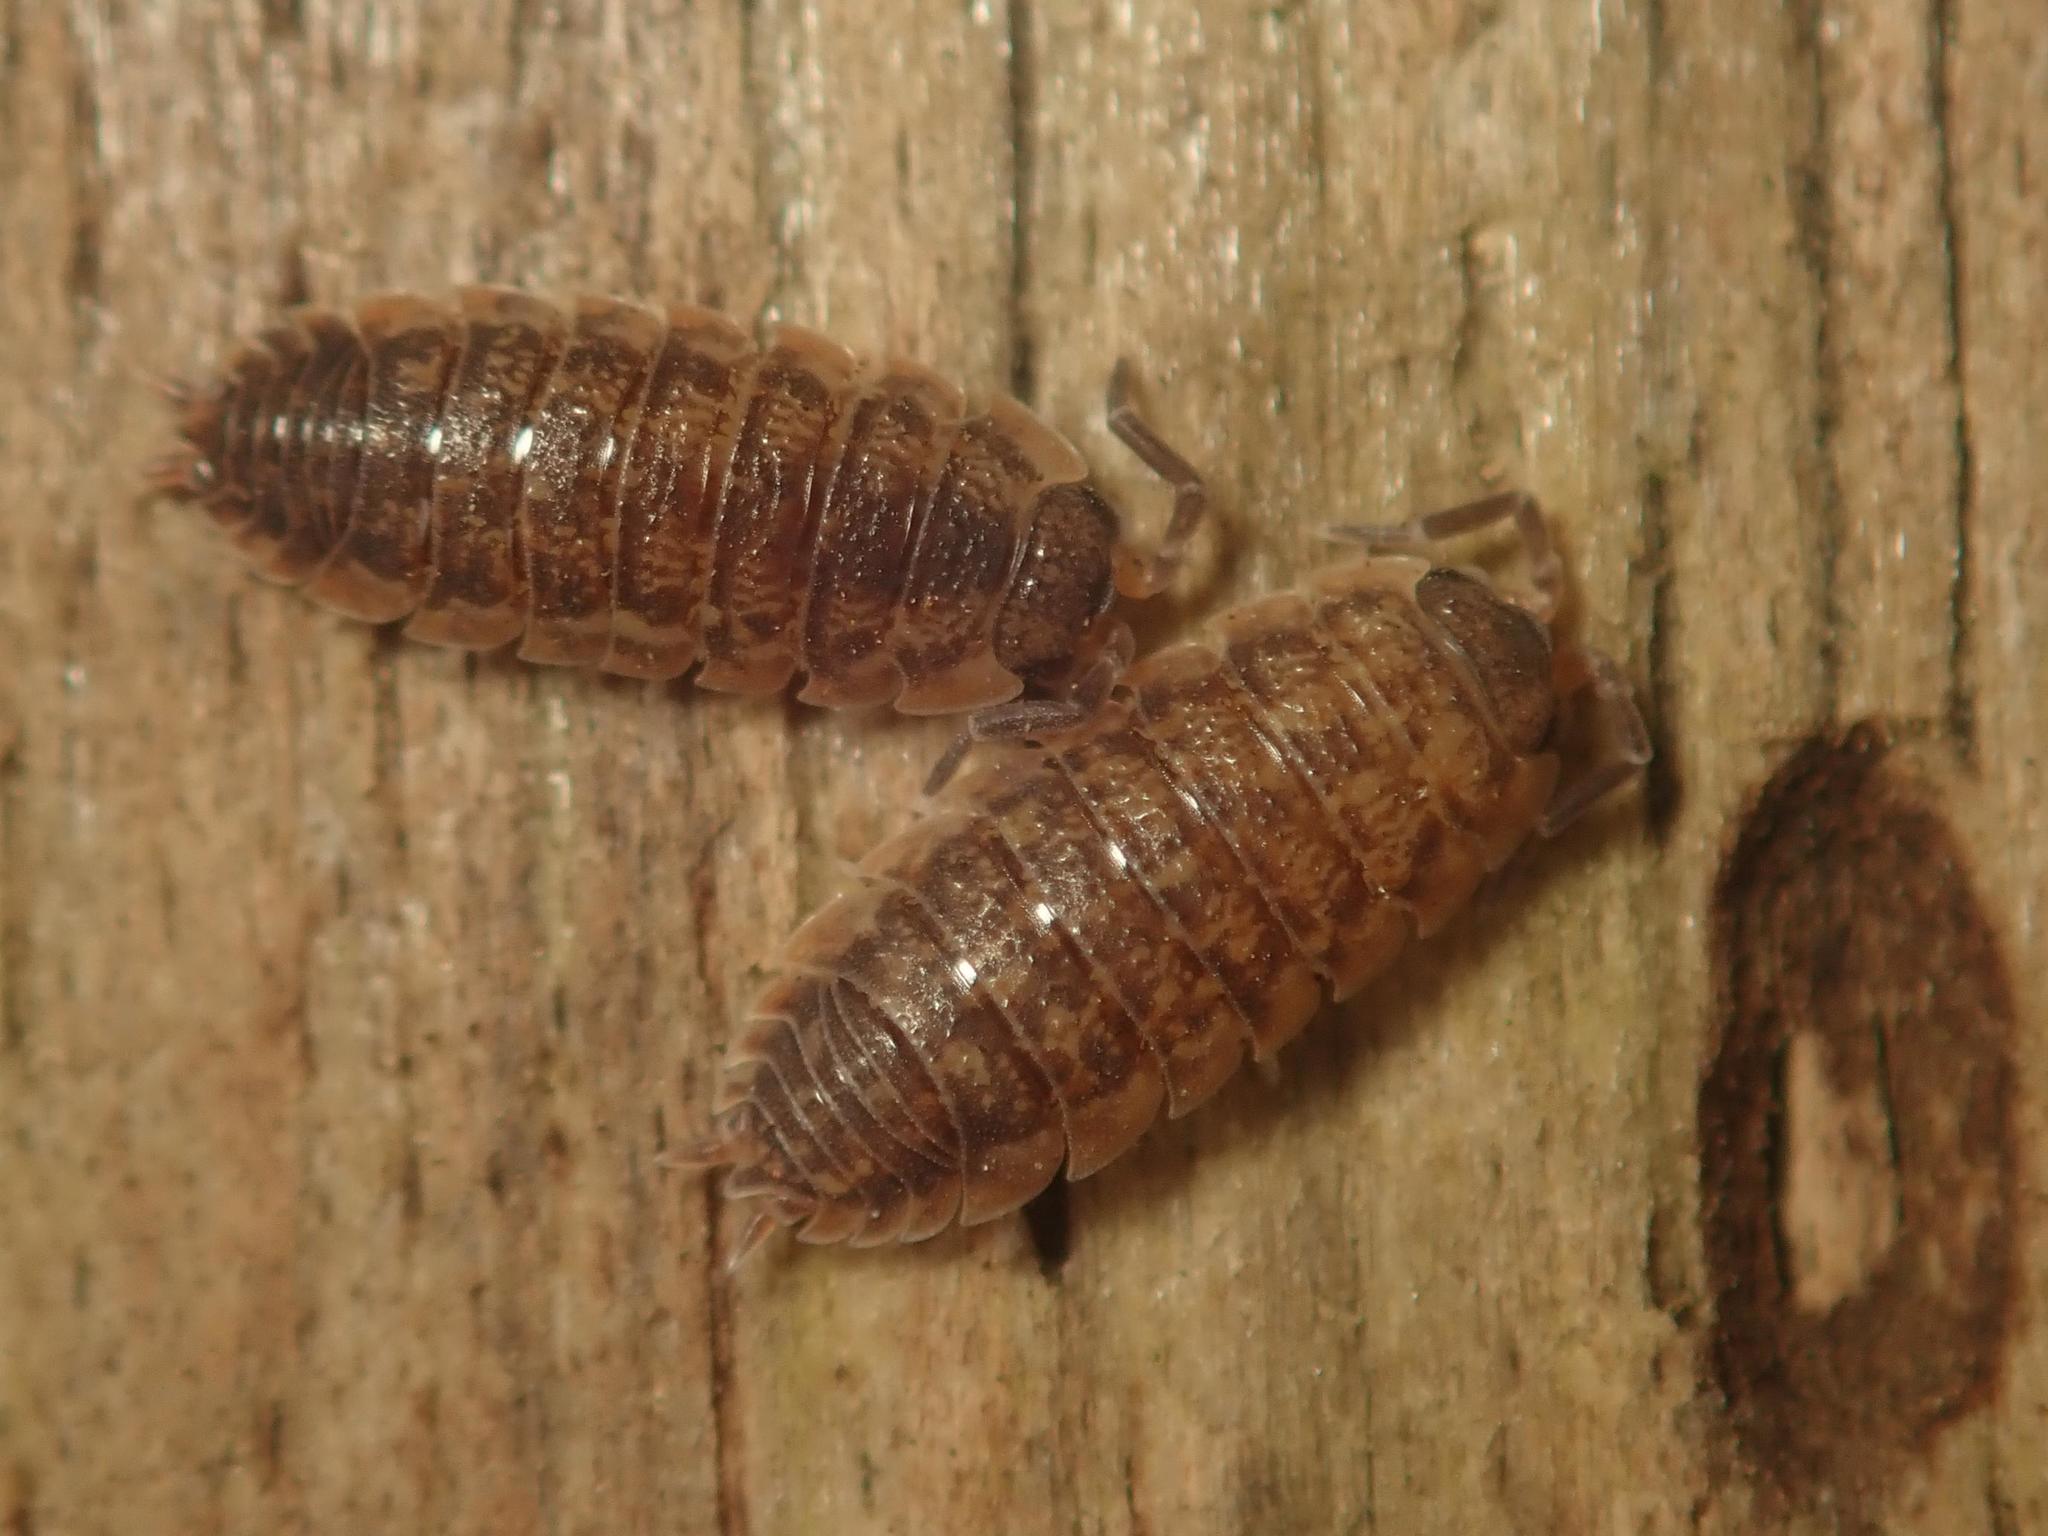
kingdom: Animalia
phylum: Arthropoda
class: Malacostraca
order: Isopoda
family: Porcellionidae
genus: Porcellio
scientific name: Porcellio scaber
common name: Common rough woodlouse
